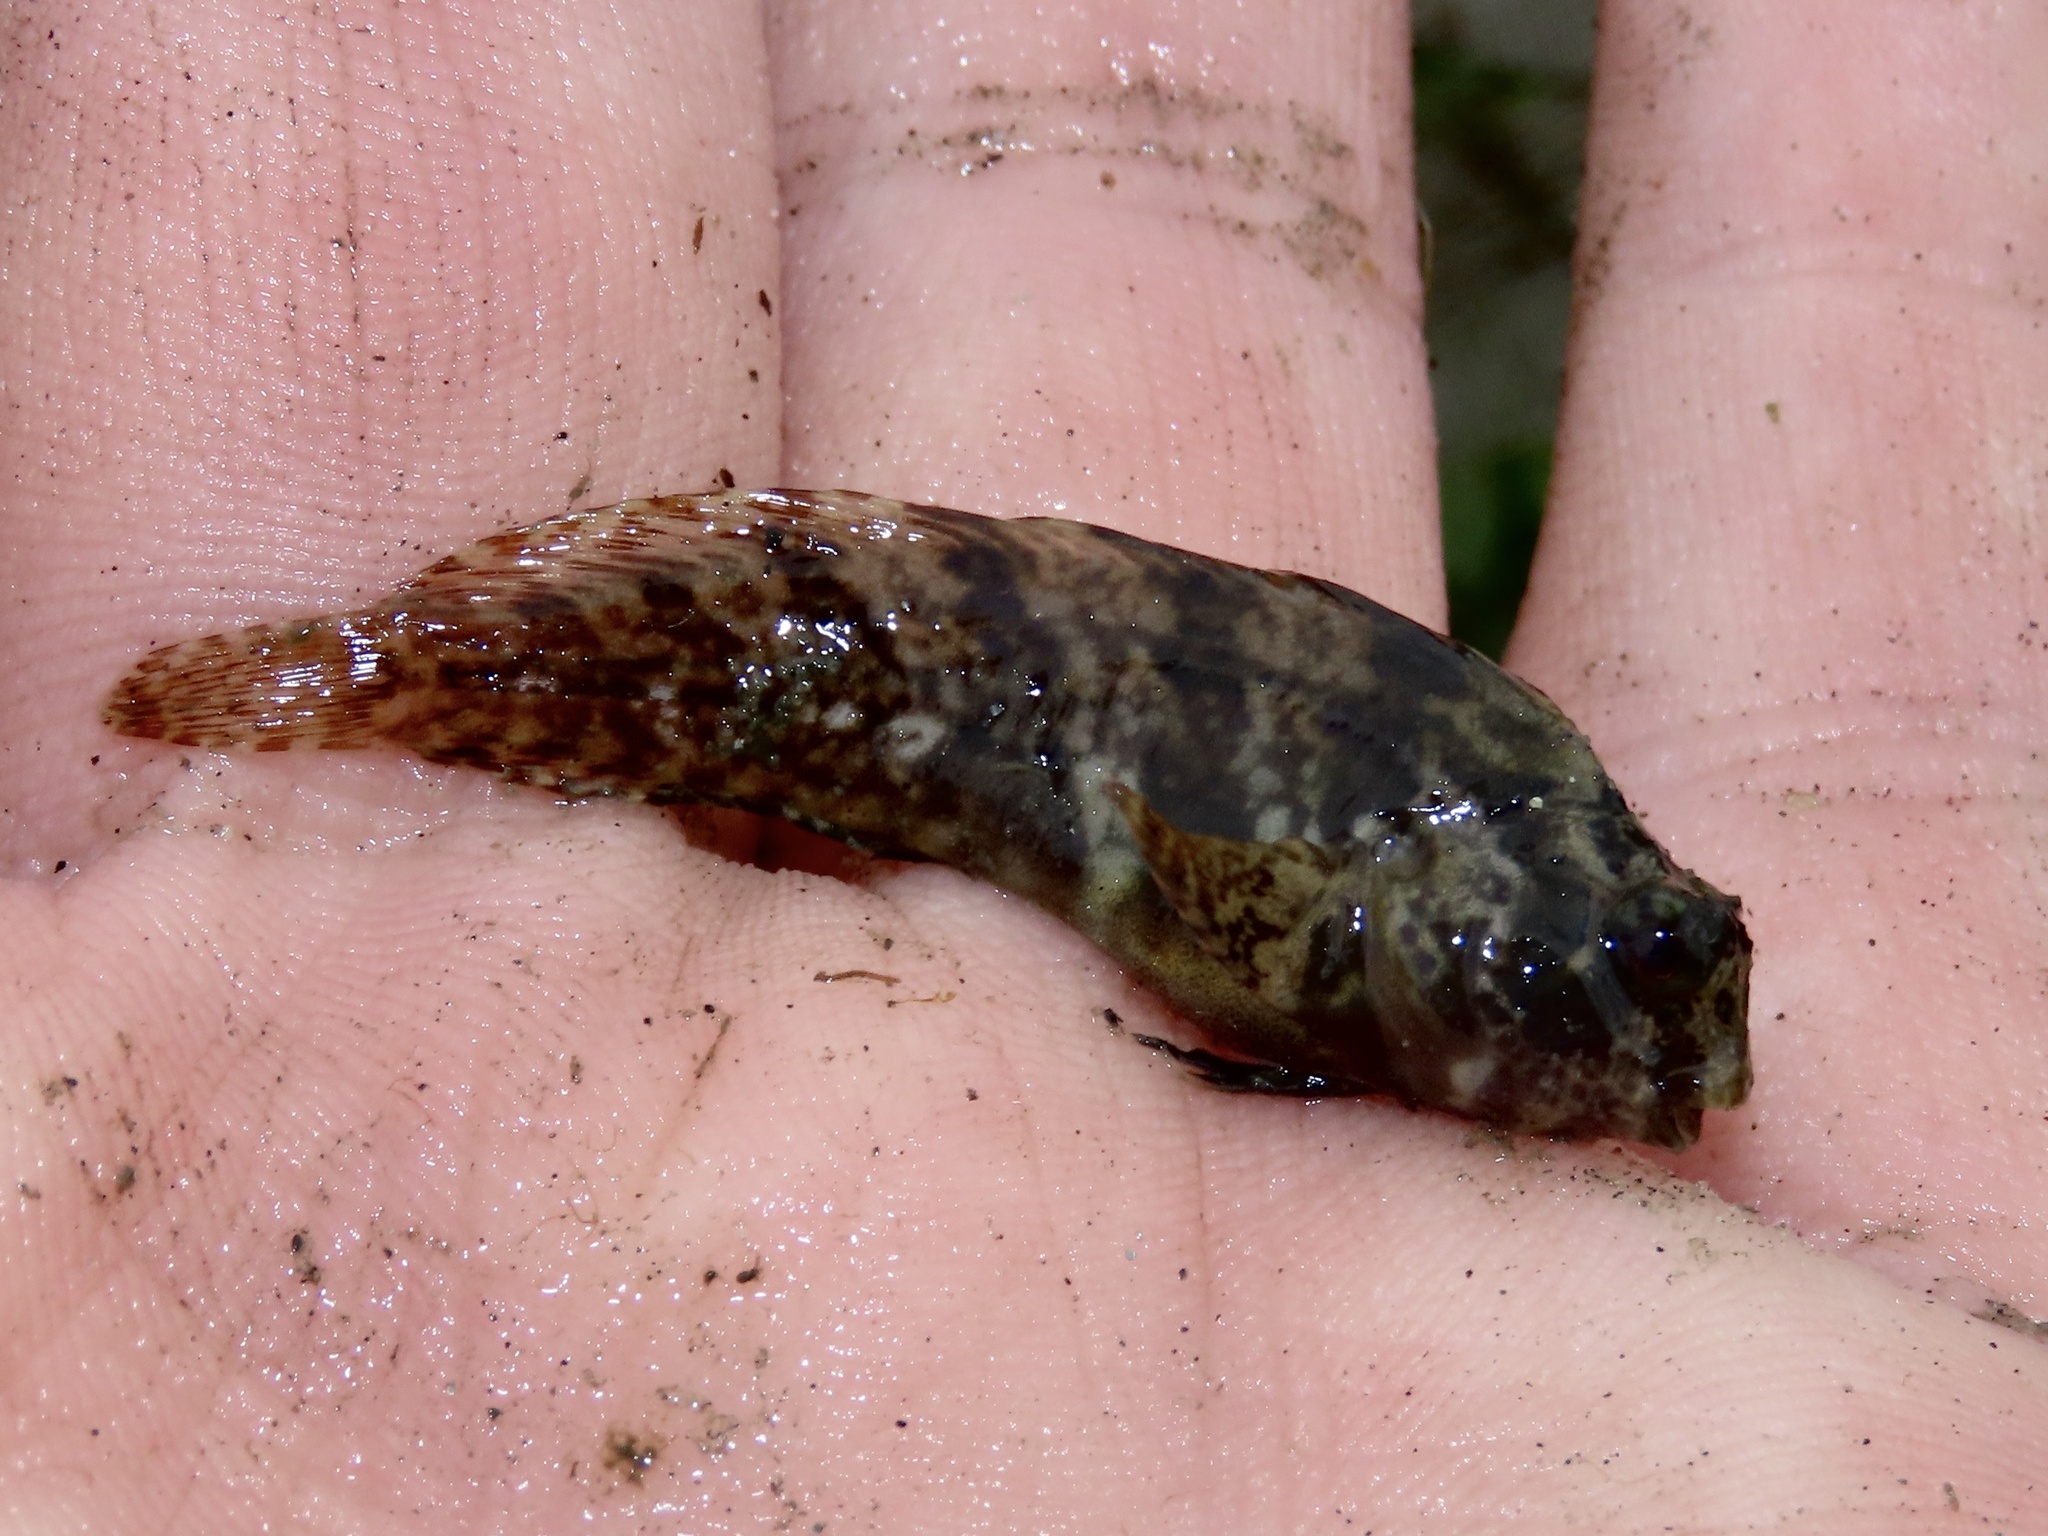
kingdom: Animalia
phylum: Chordata
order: Perciformes
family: Blenniidae
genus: Hypsoblennius
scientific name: Hypsoblennius hentz
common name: Feather blenny
